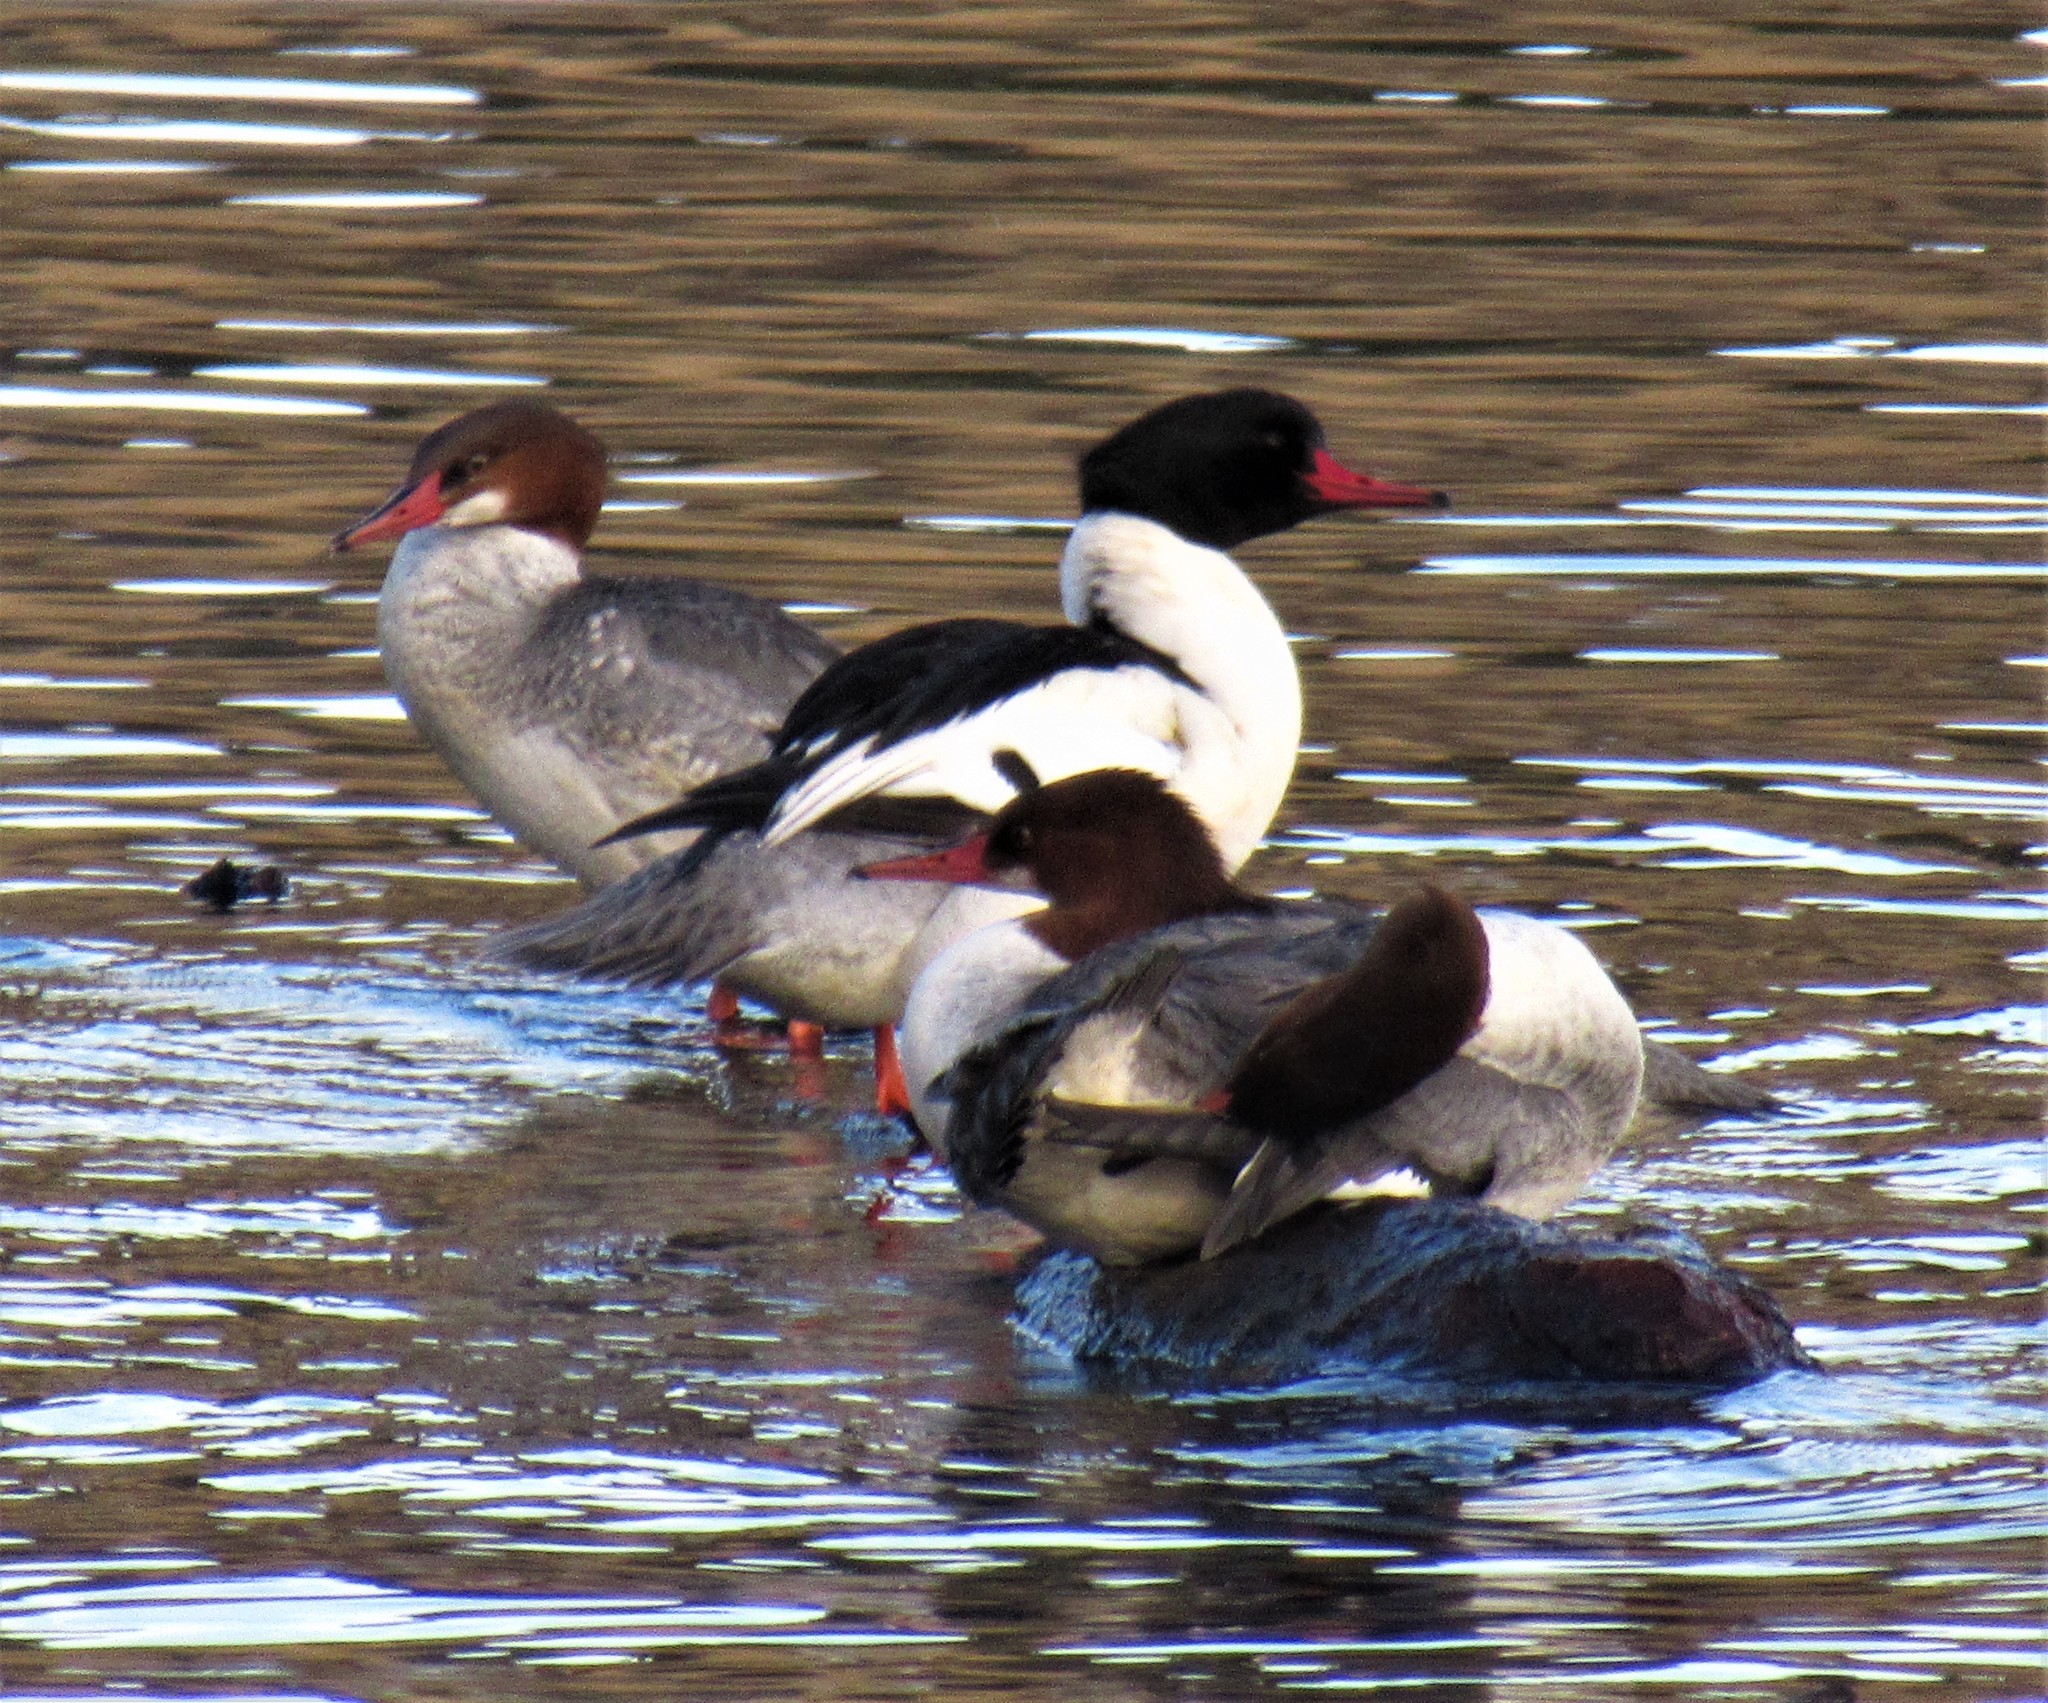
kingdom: Animalia
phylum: Chordata
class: Aves
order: Anseriformes
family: Anatidae
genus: Mergus
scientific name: Mergus merganser
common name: Common merganser
